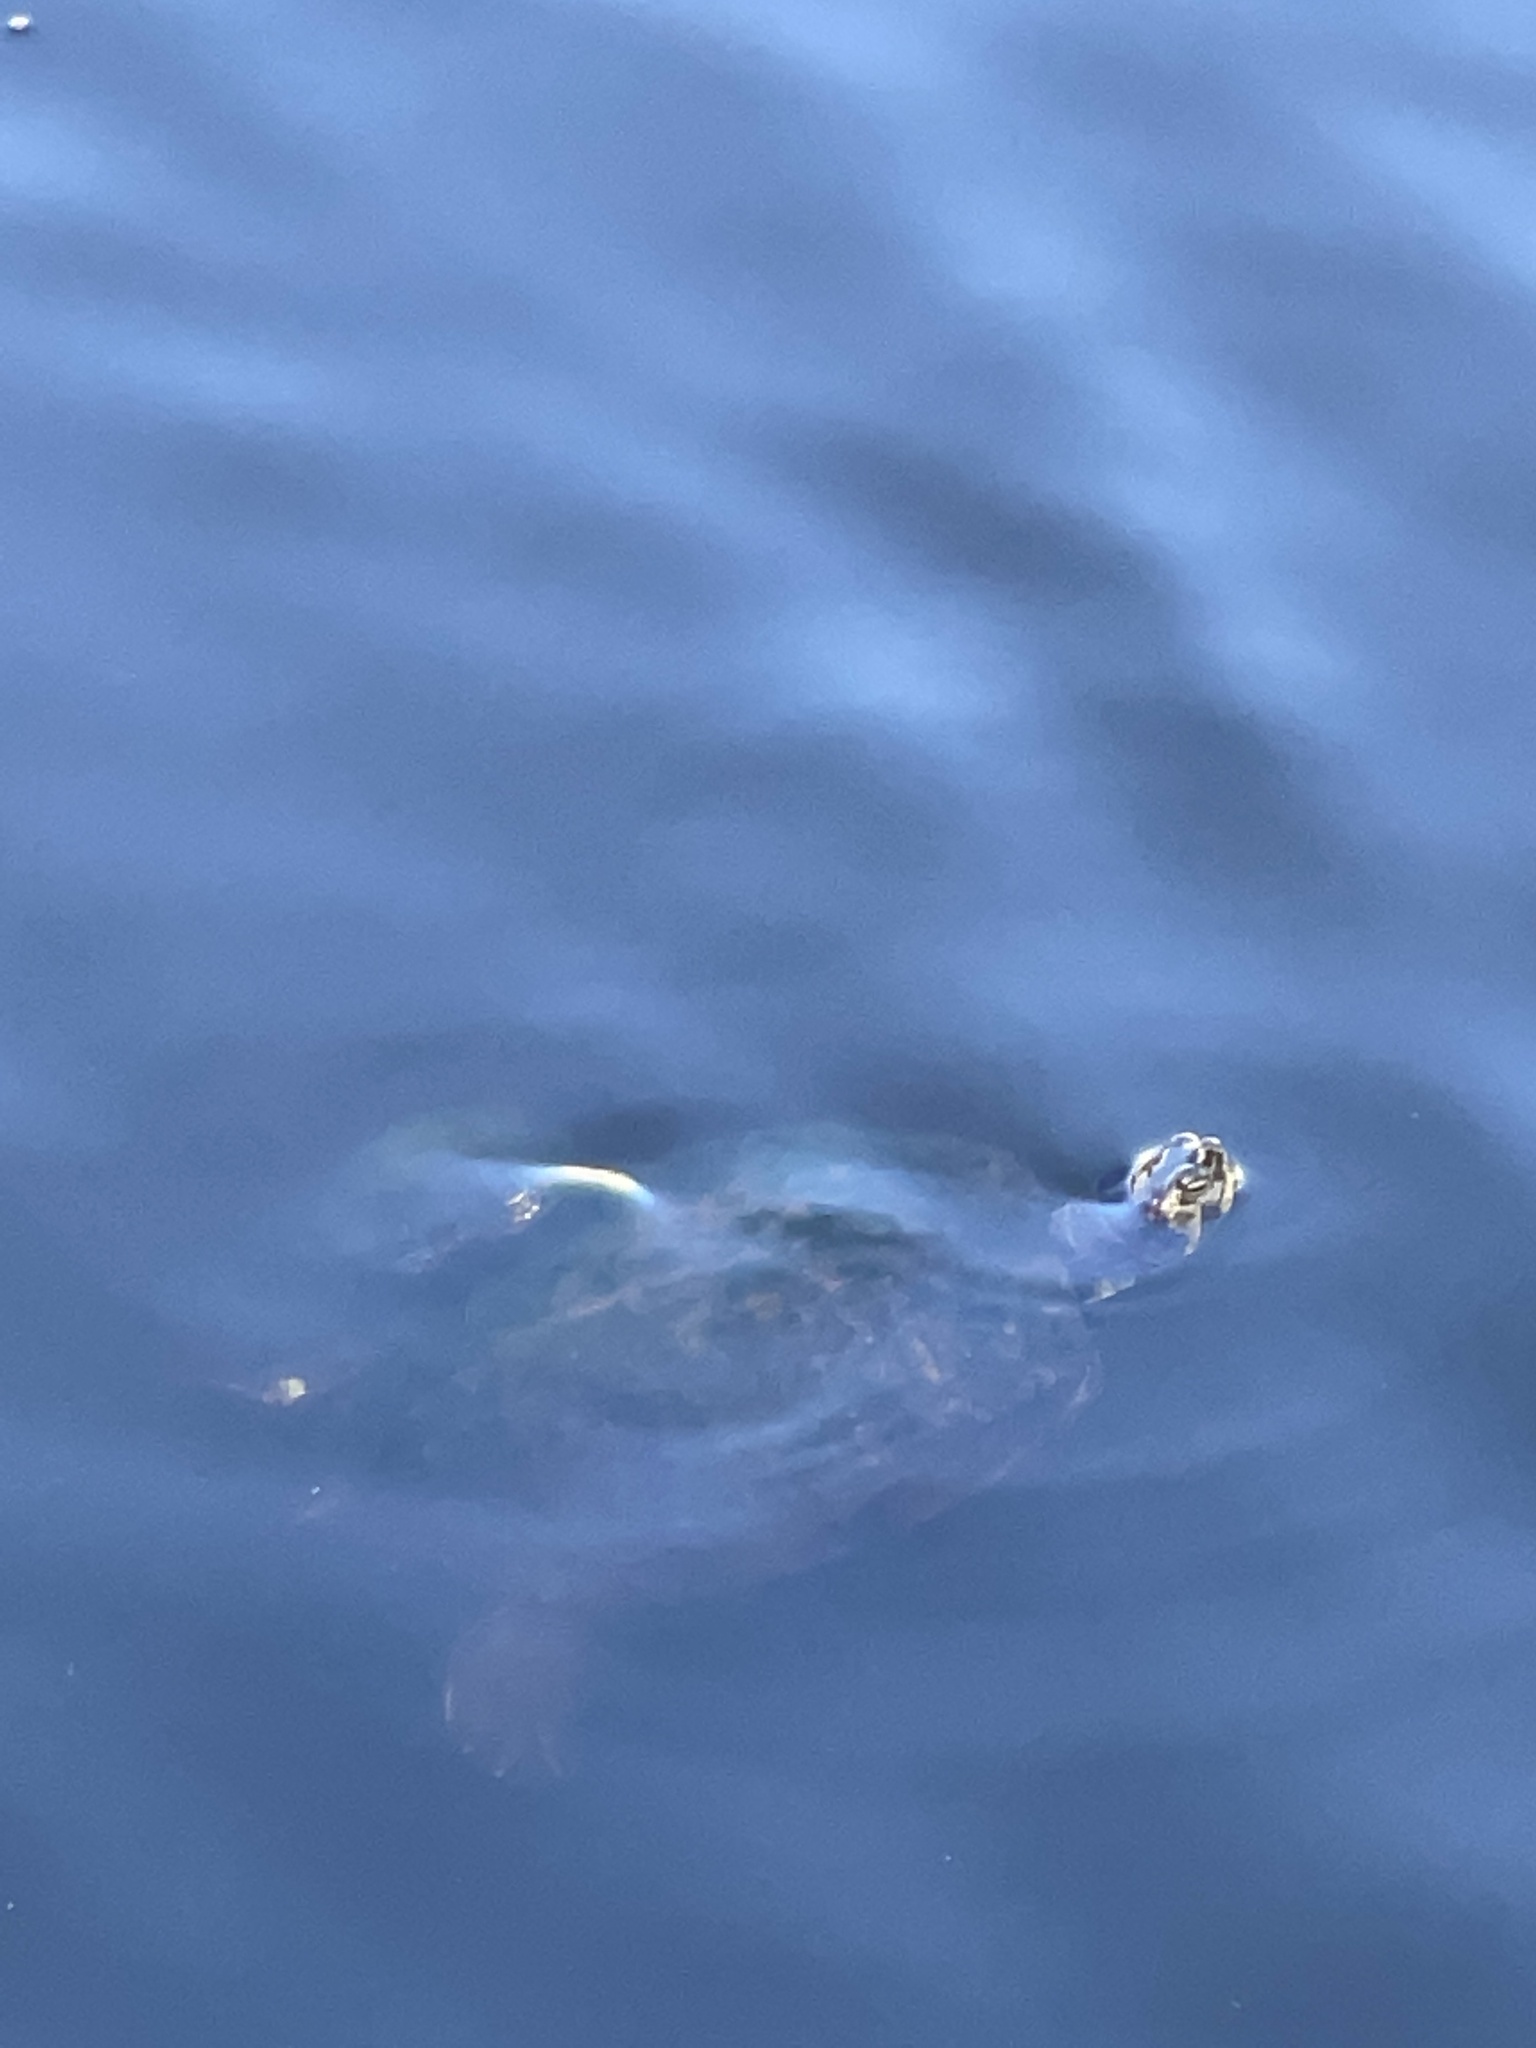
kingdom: Animalia
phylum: Chordata
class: Testudines
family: Emydidae
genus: Trachemys
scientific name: Trachemys scripta
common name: Slider
